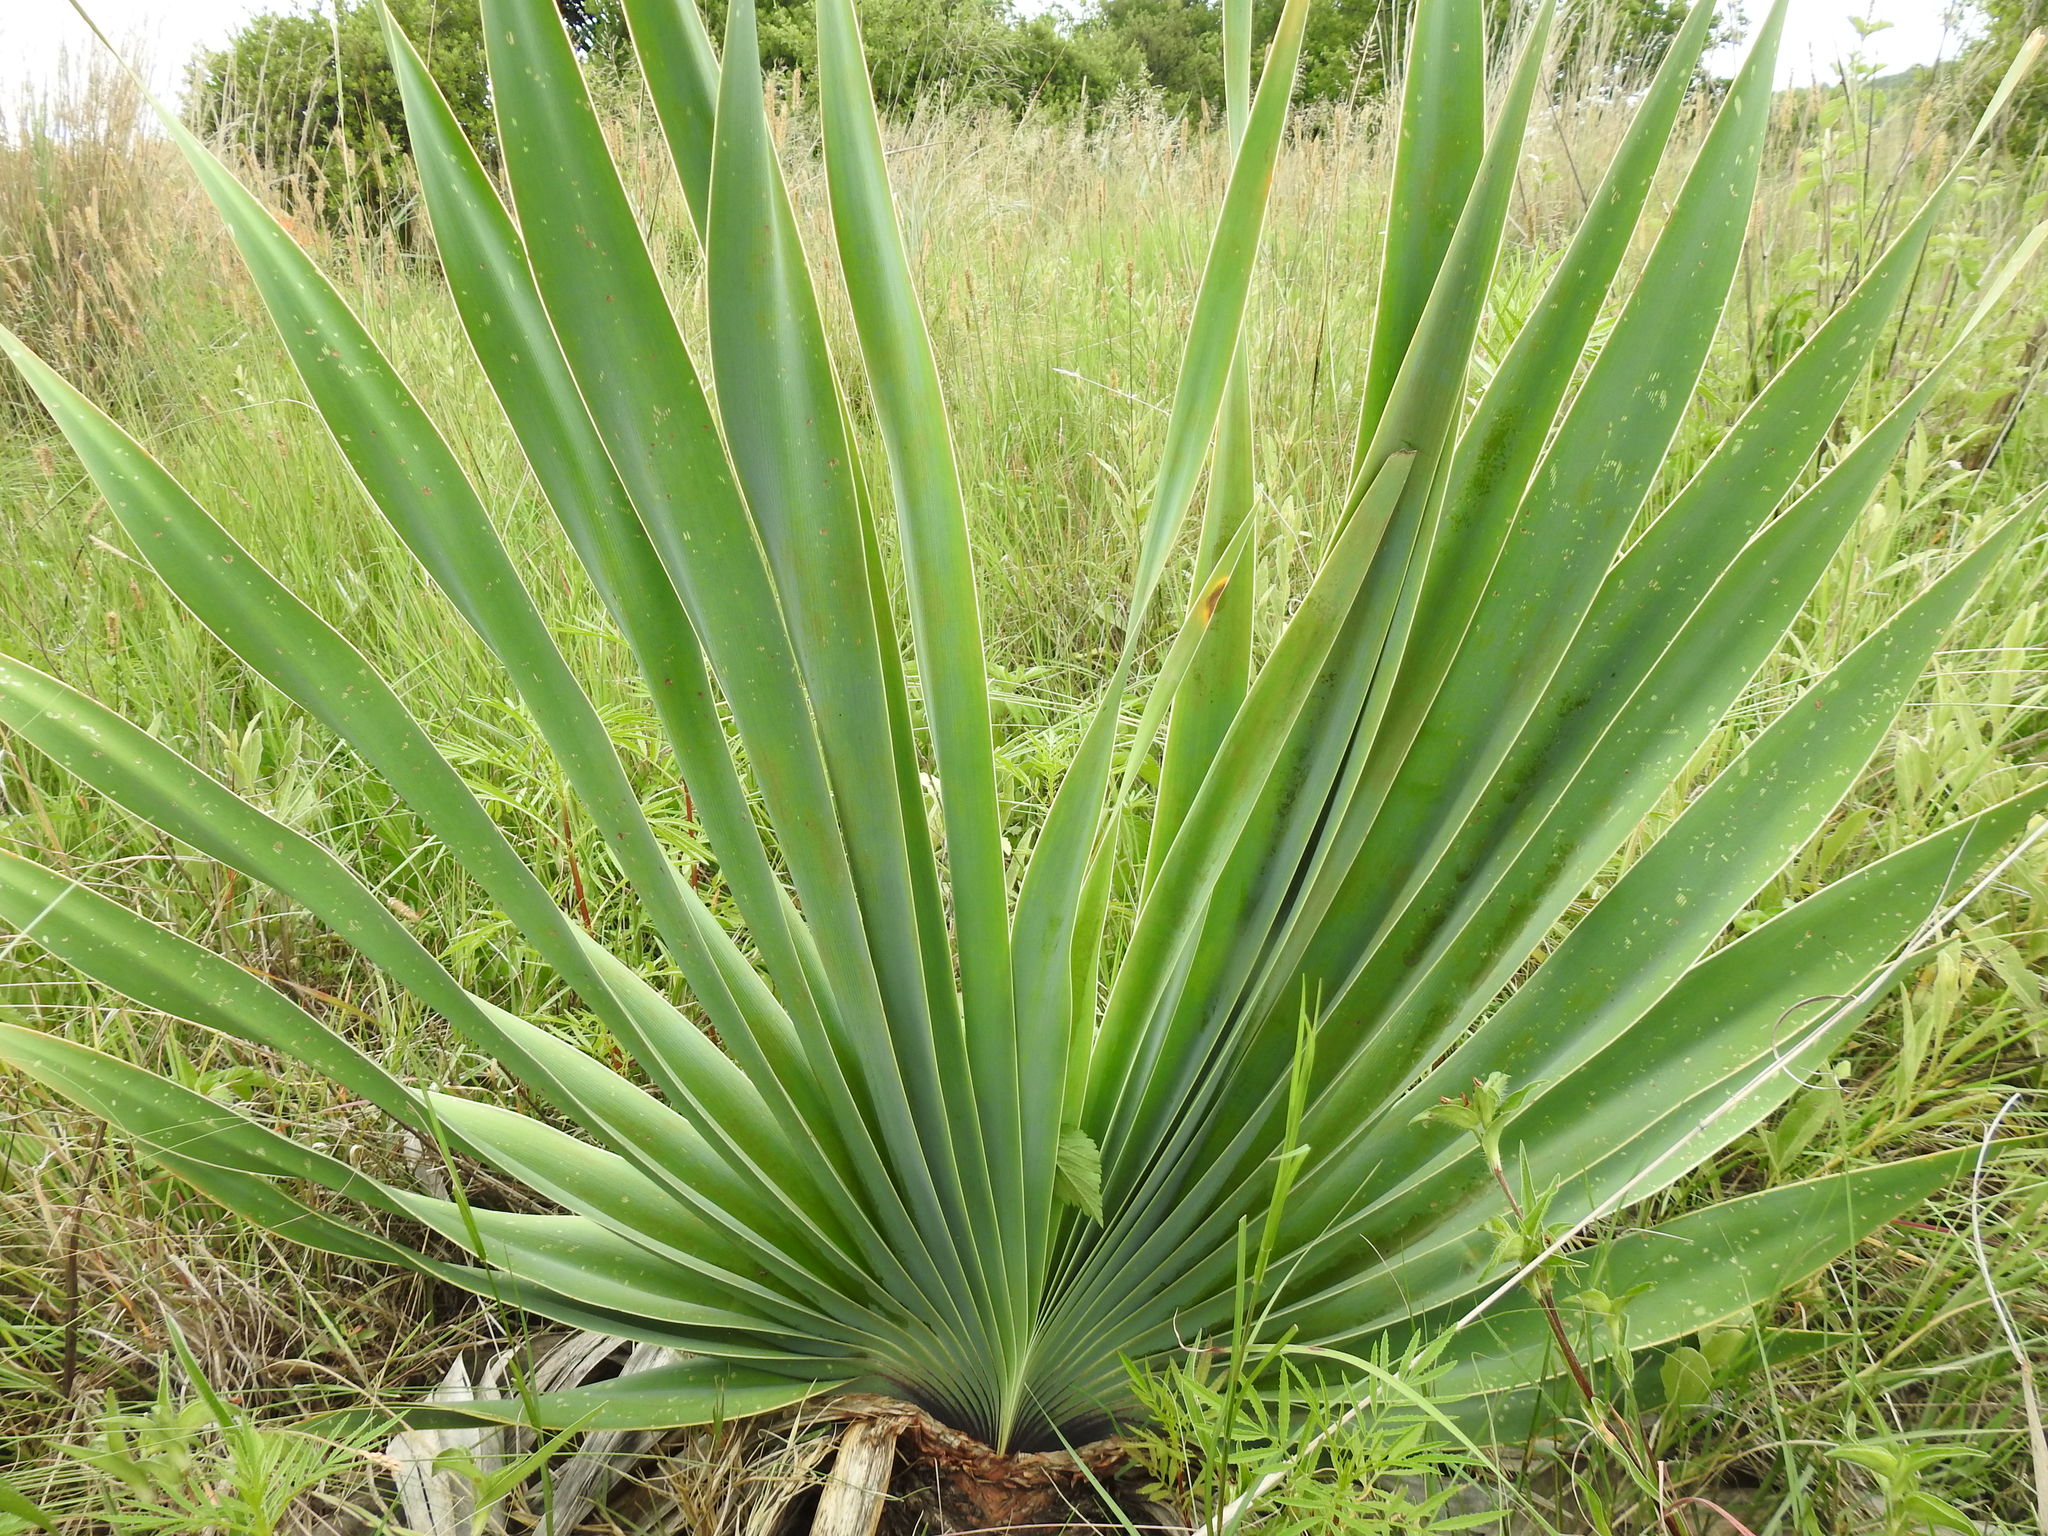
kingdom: Plantae
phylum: Tracheophyta
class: Liliopsida
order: Asparagales
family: Amaryllidaceae
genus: Boophone
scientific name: Boophone disticha
